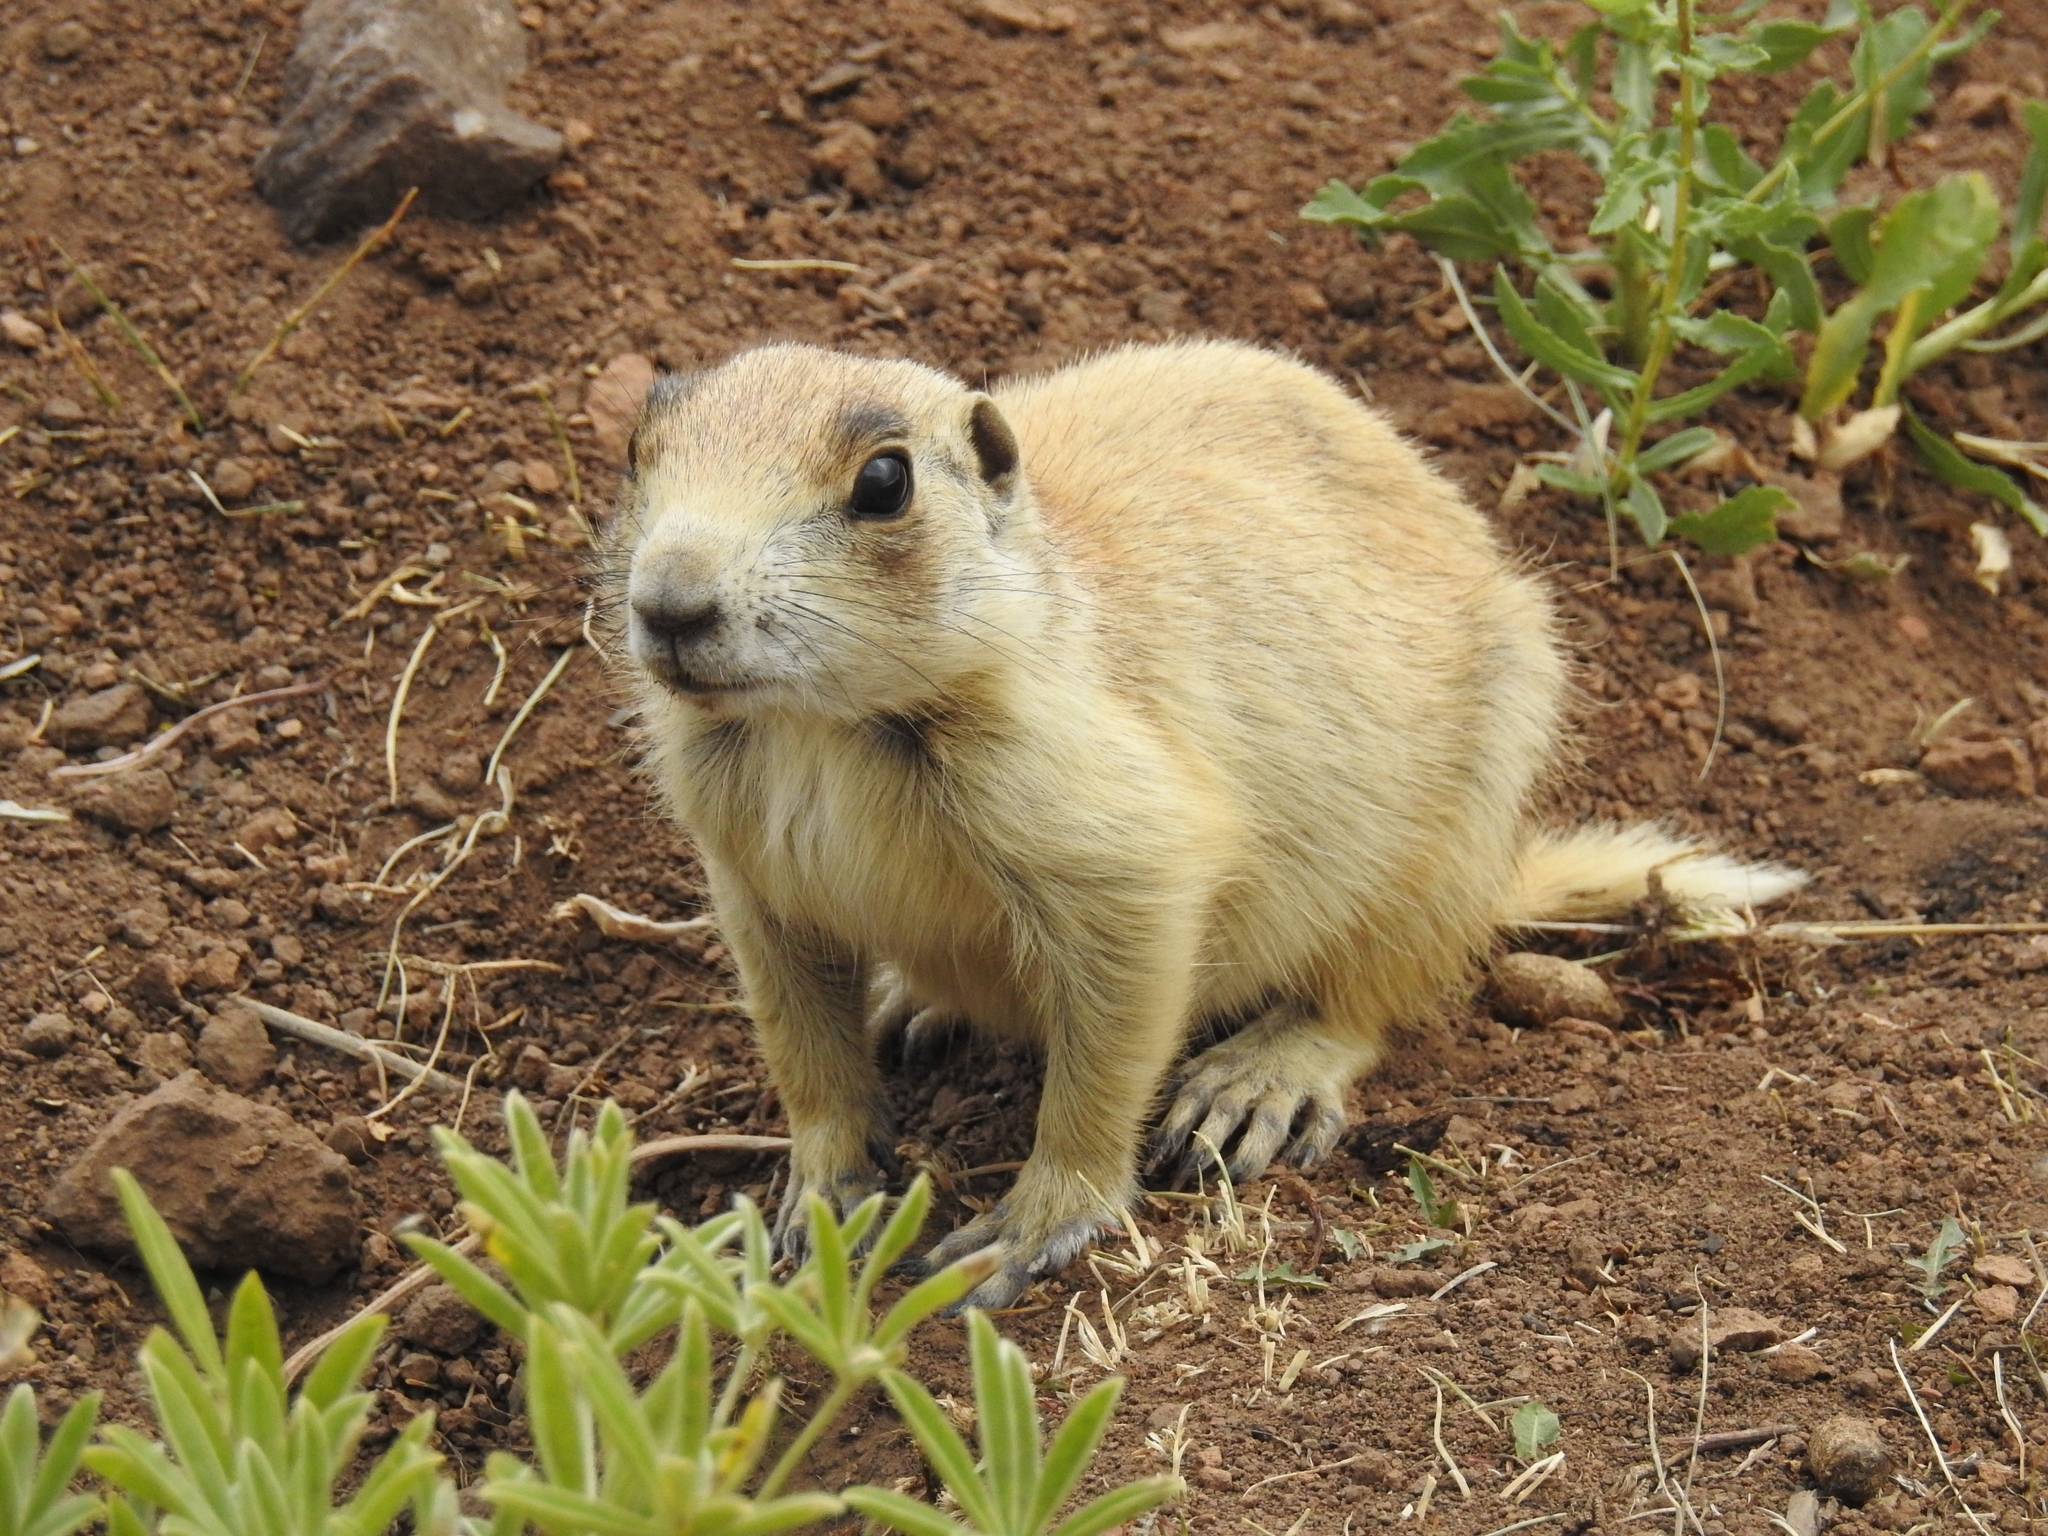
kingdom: Animalia
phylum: Chordata
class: Mammalia
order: Rodentia
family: Sciuridae
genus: Cynomys
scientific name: Cynomys leucurus
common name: White-tailed prairie dog
